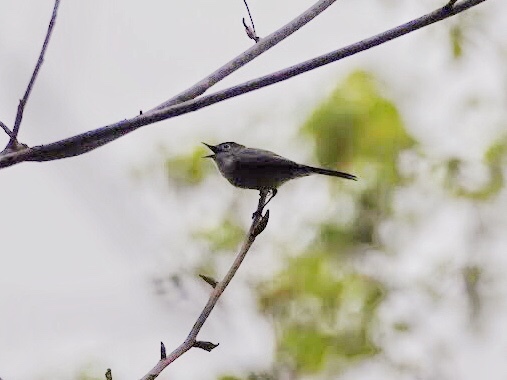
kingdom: Animalia
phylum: Chordata
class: Aves
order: Passeriformes
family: Polioptilidae
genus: Polioptila
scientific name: Polioptila caerulea
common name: Blue-gray gnatcatcher
